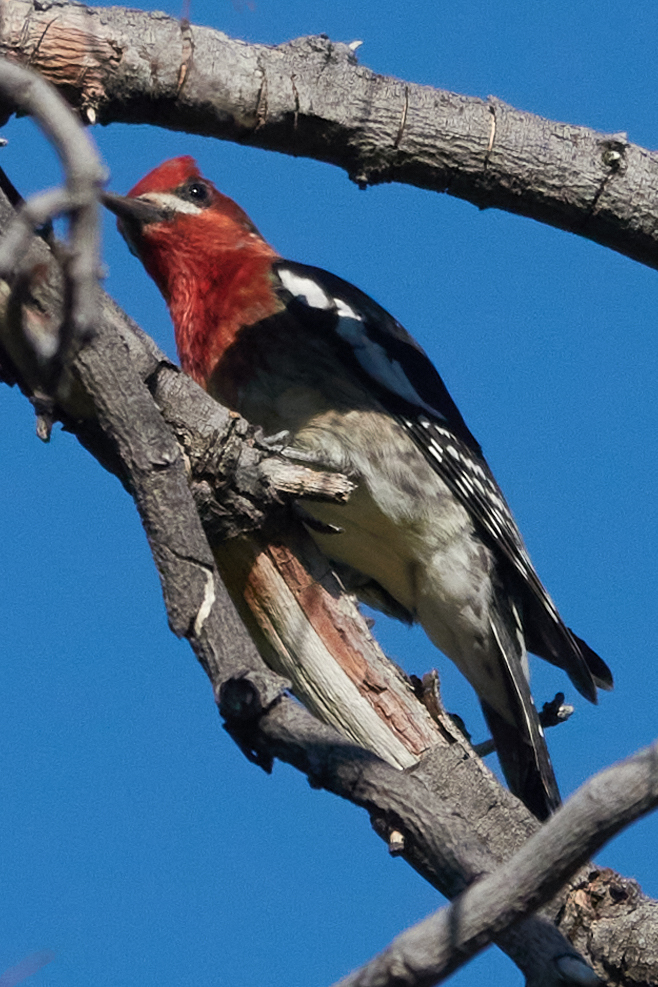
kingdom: Animalia
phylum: Chordata
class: Aves
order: Piciformes
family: Picidae
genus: Sphyrapicus
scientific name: Sphyrapicus ruber
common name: Red-breasted sapsucker
